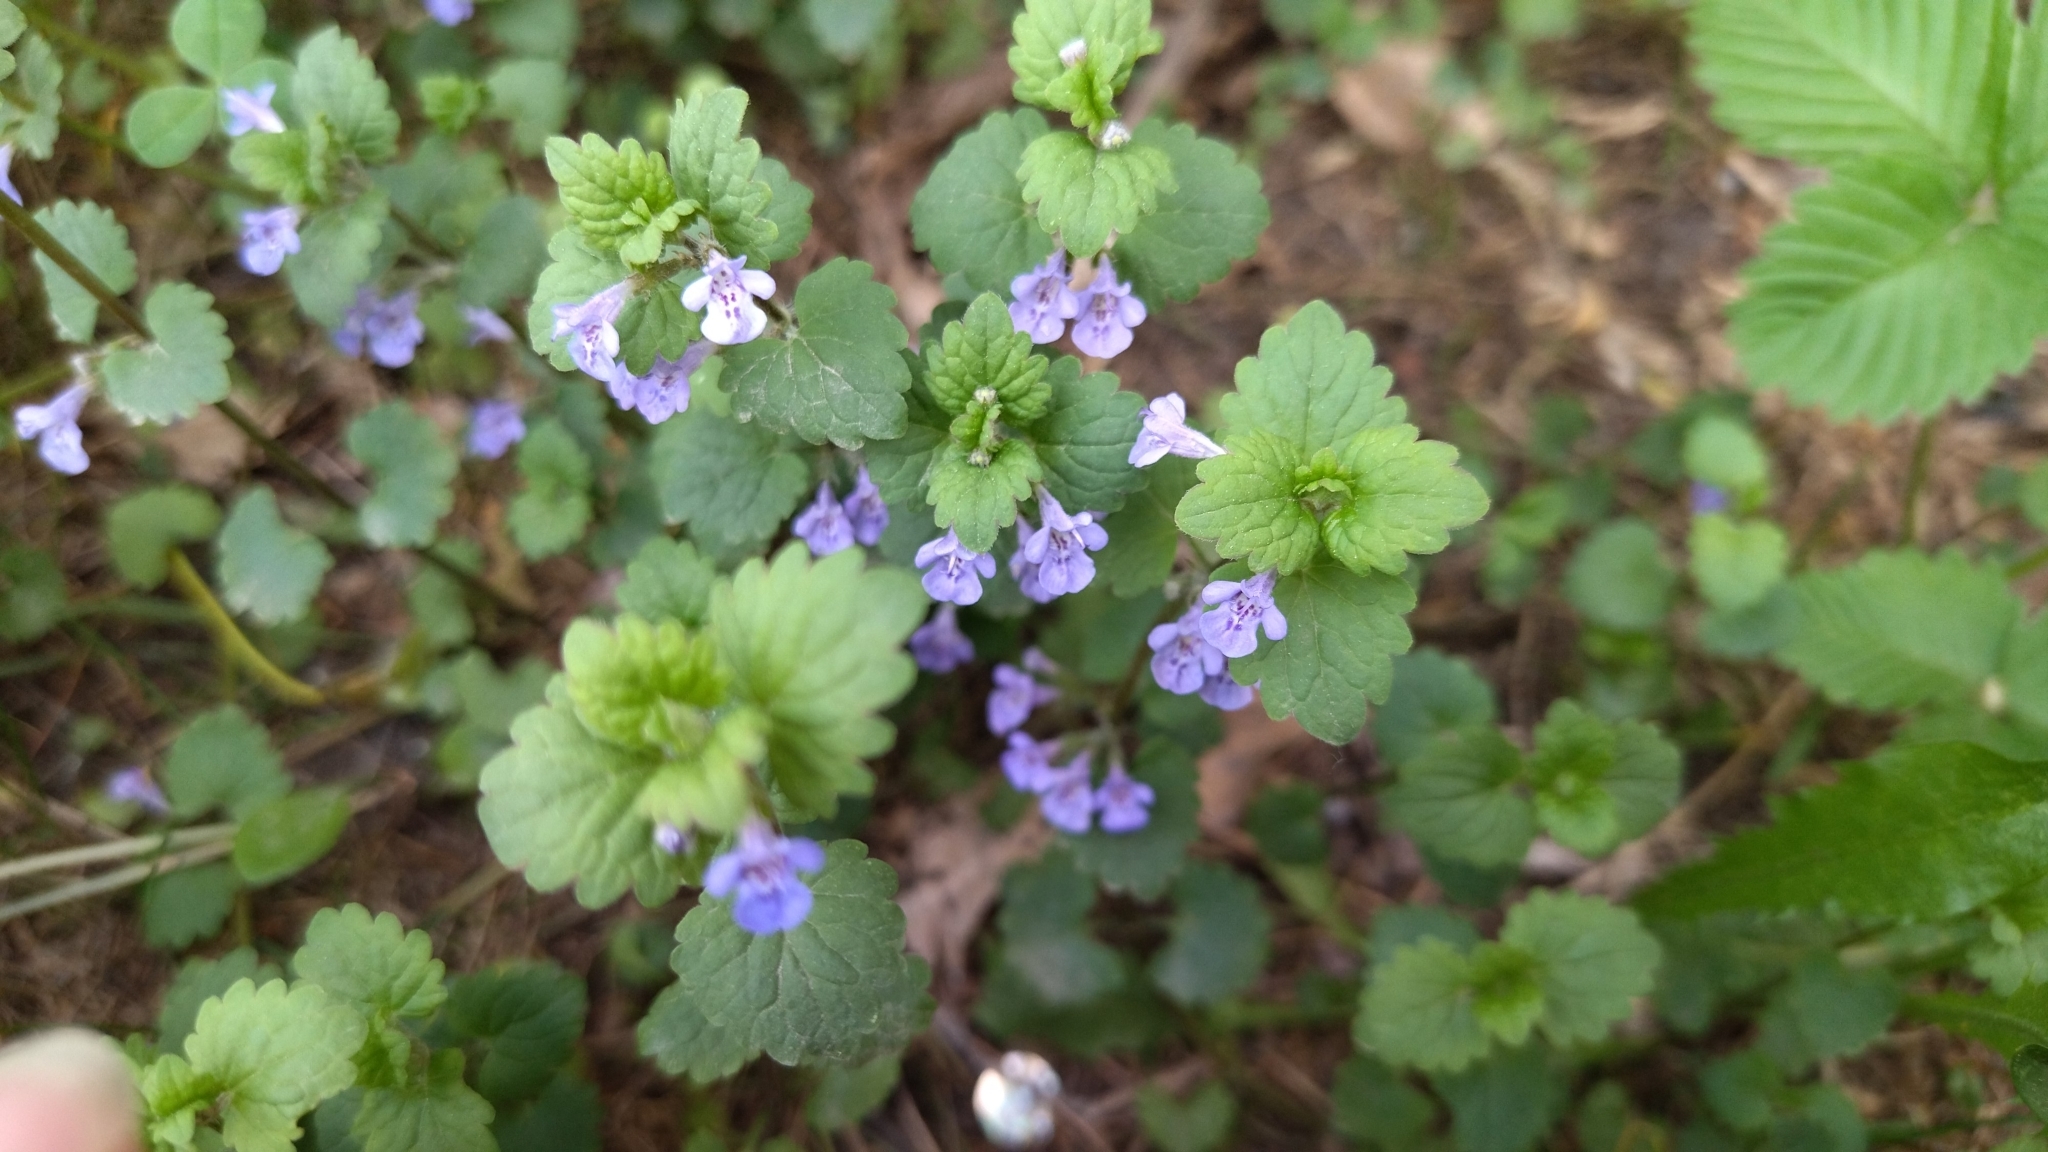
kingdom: Plantae
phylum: Tracheophyta
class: Magnoliopsida
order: Lamiales
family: Lamiaceae
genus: Glechoma
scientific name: Glechoma hederacea
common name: Ground ivy
